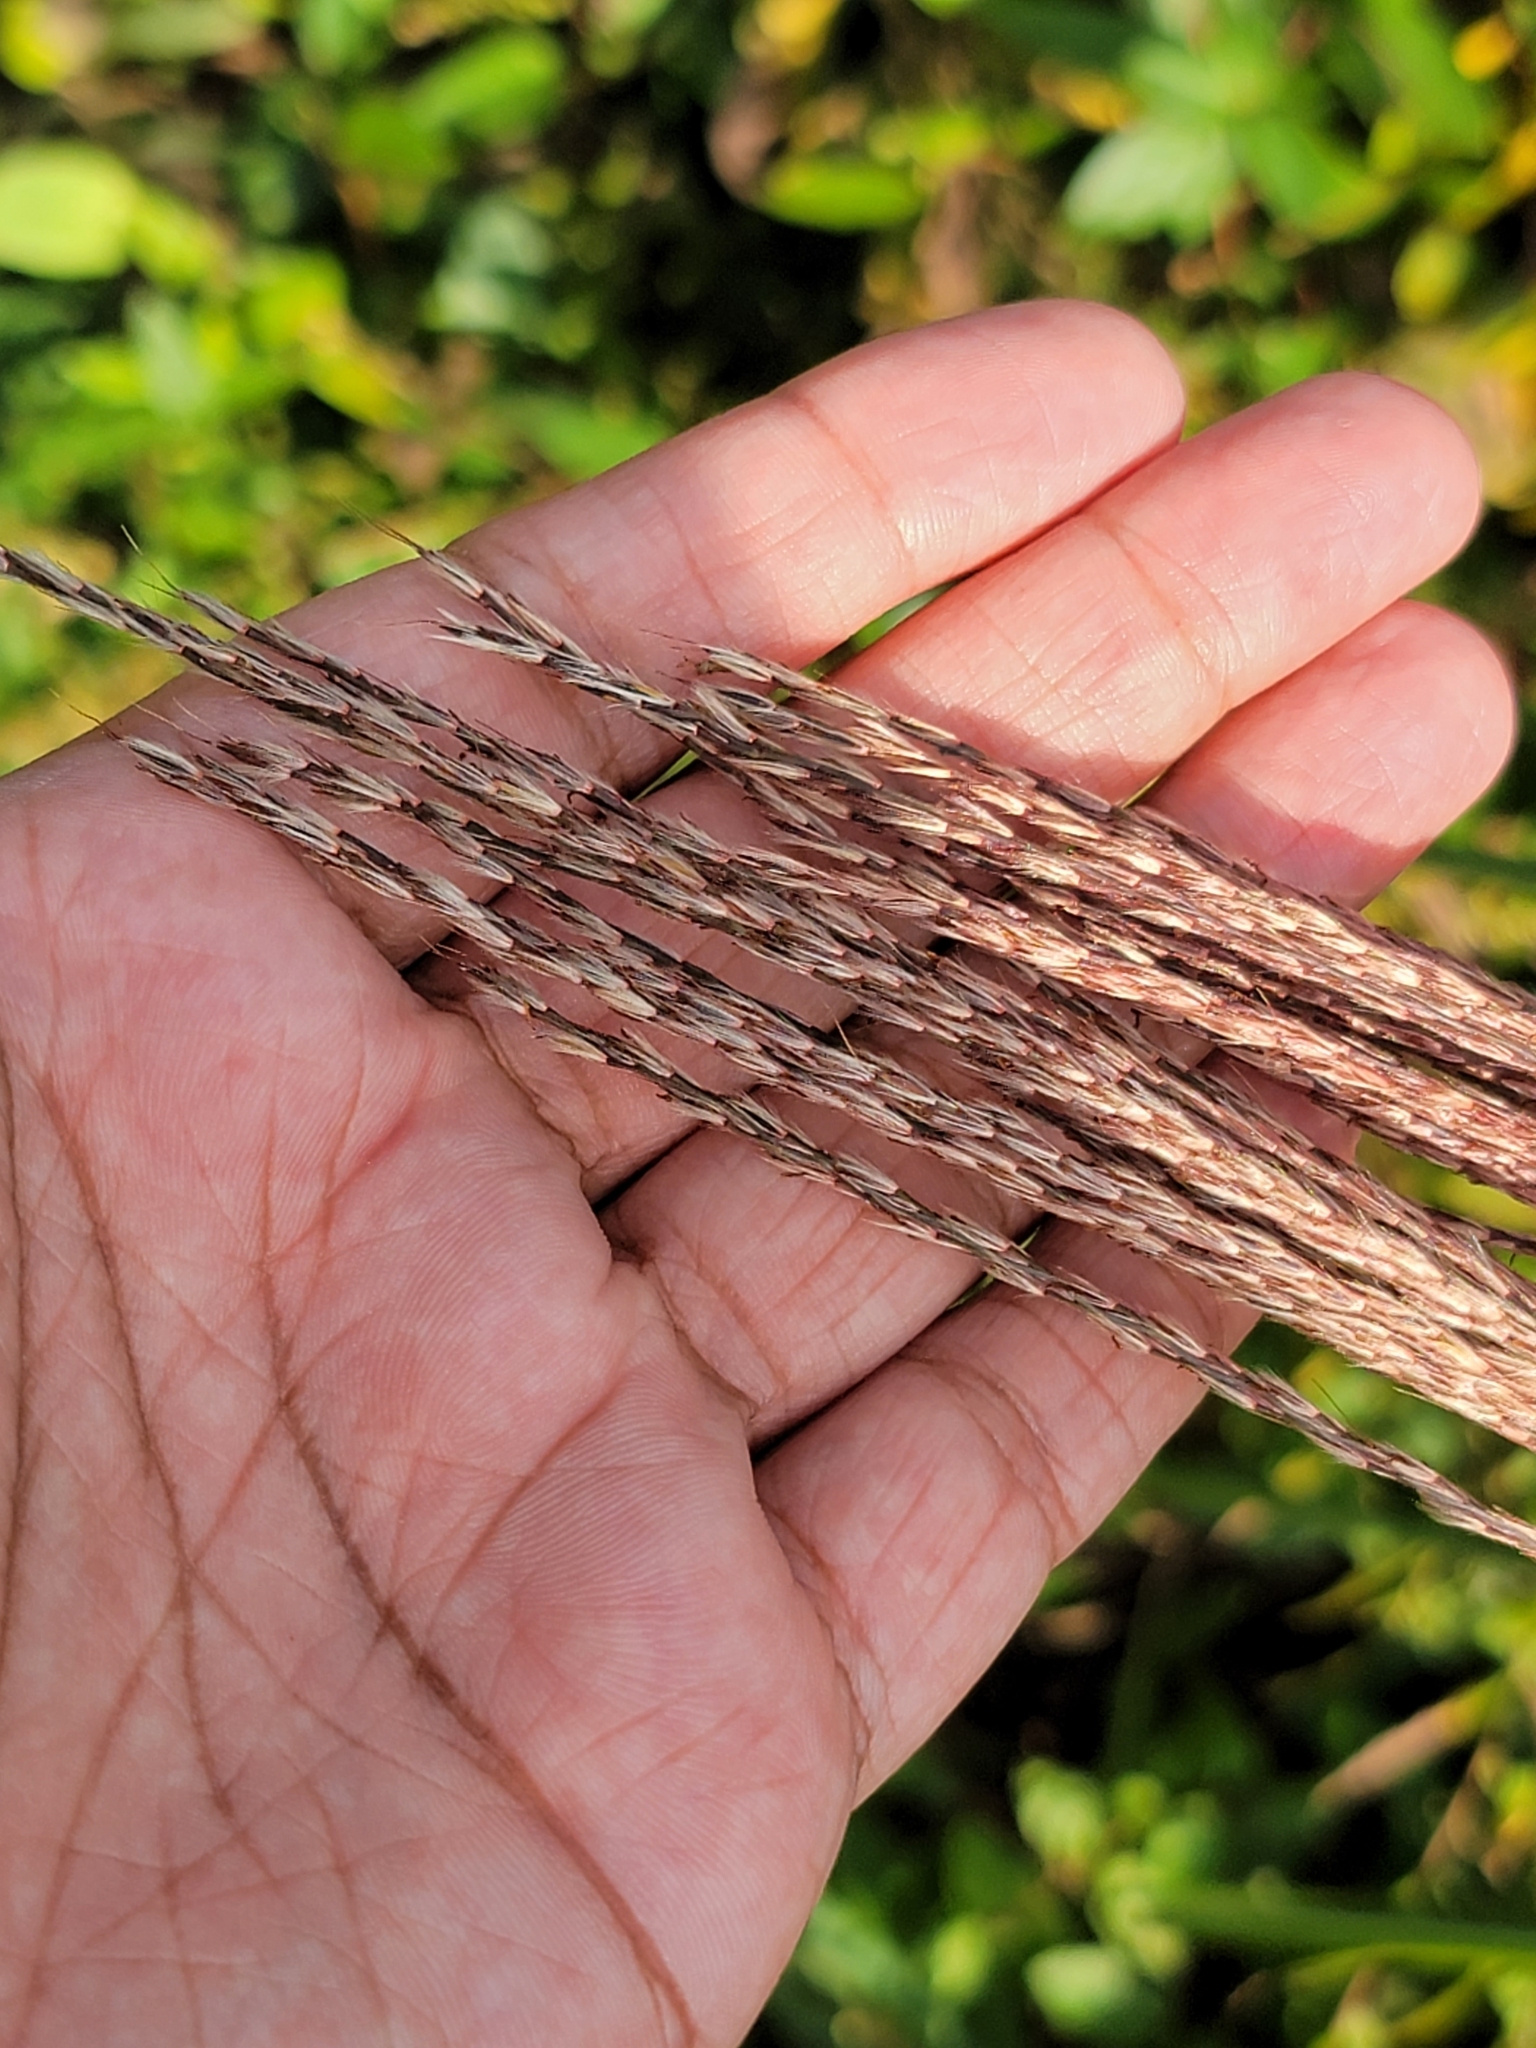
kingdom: Plantae
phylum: Tracheophyta
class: Liliopsida
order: Poales
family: Poaceae
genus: Miscanthus
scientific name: Miscanthus sinensis
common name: Chinese silvergrass
